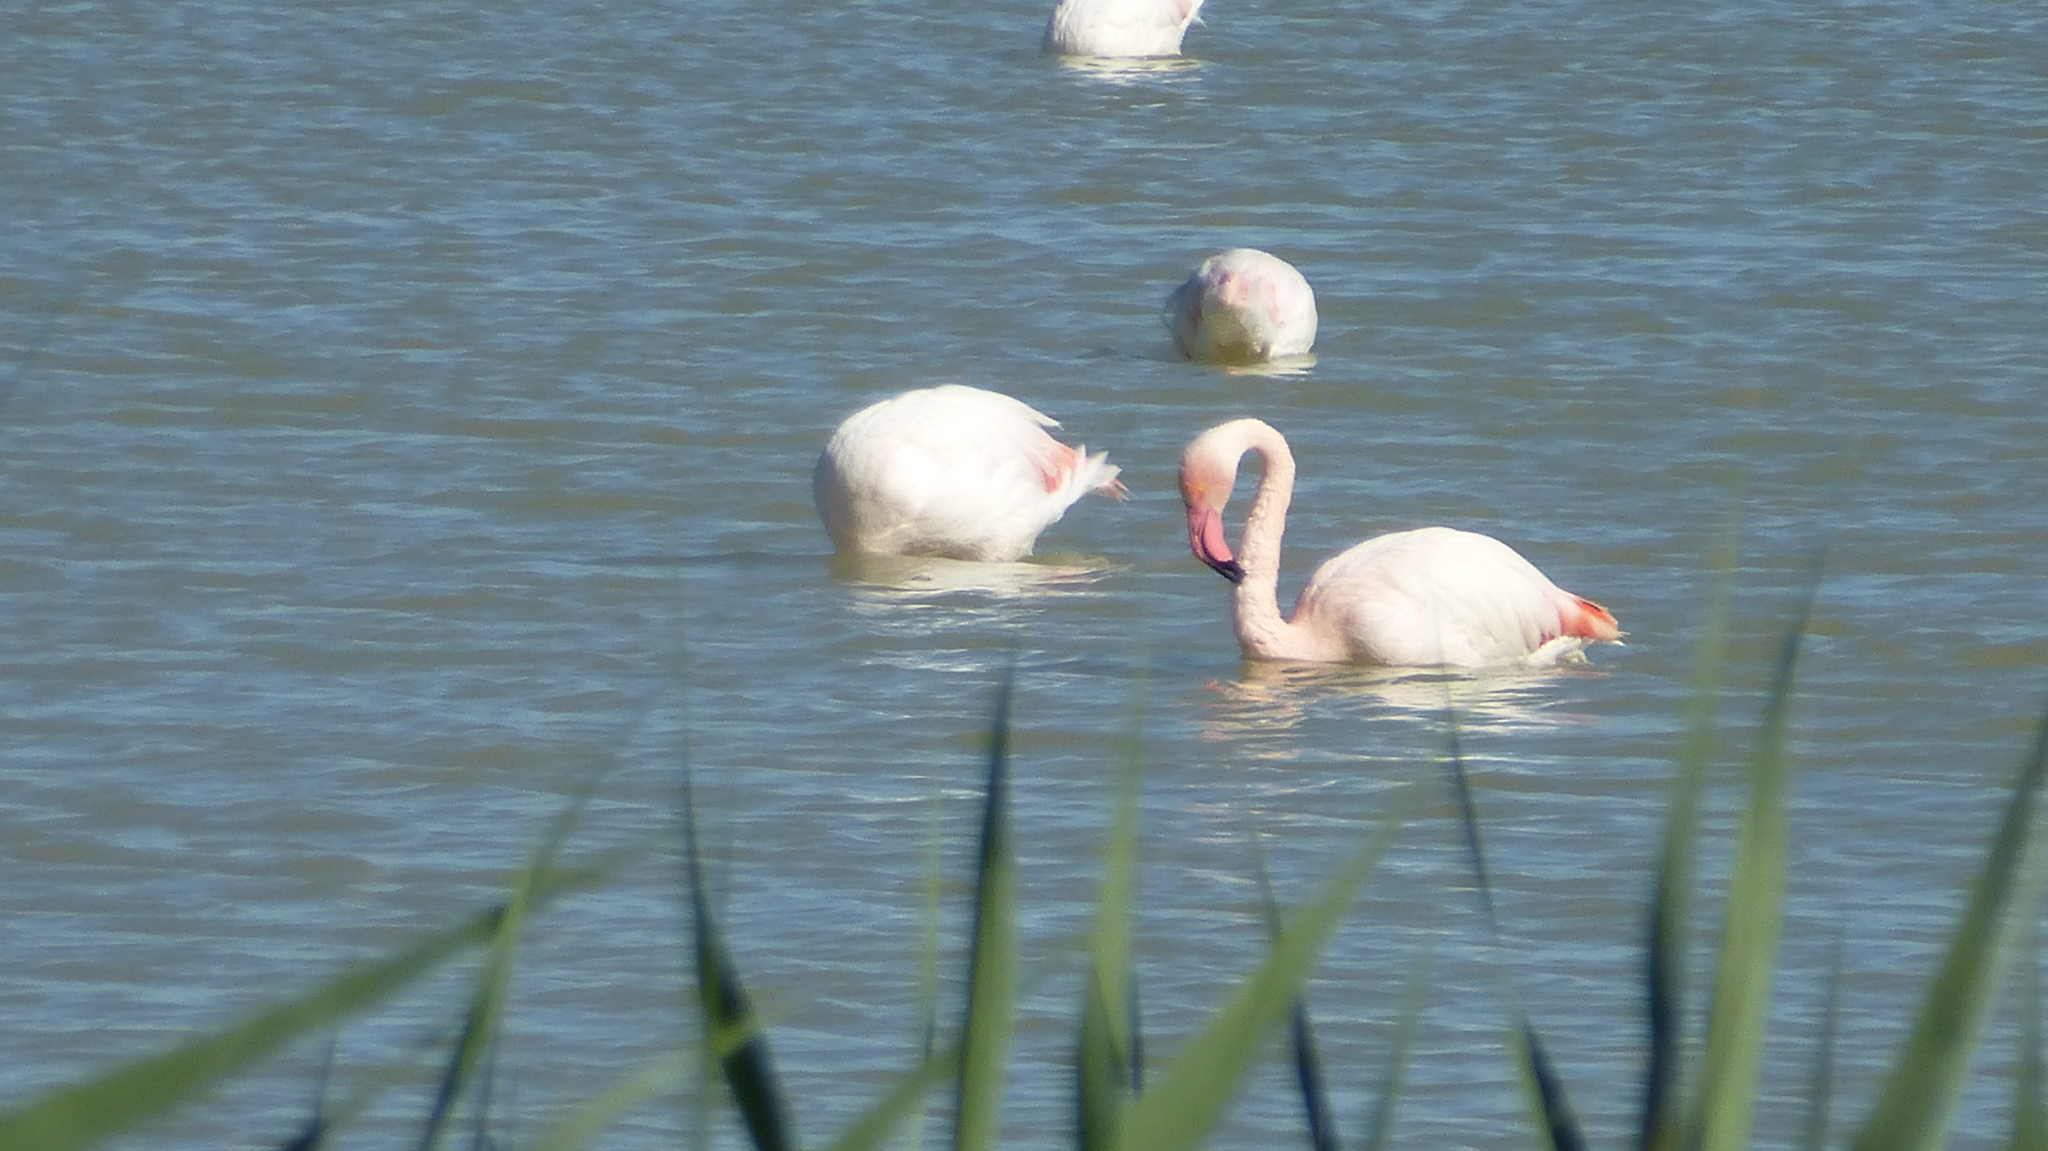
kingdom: Animalia
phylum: Chordata
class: Aves
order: Phoenicopteriformes
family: Phoenicopteridae
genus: Phoenicopterus
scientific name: Phoenicopterus roseus
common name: Greater flamingo
